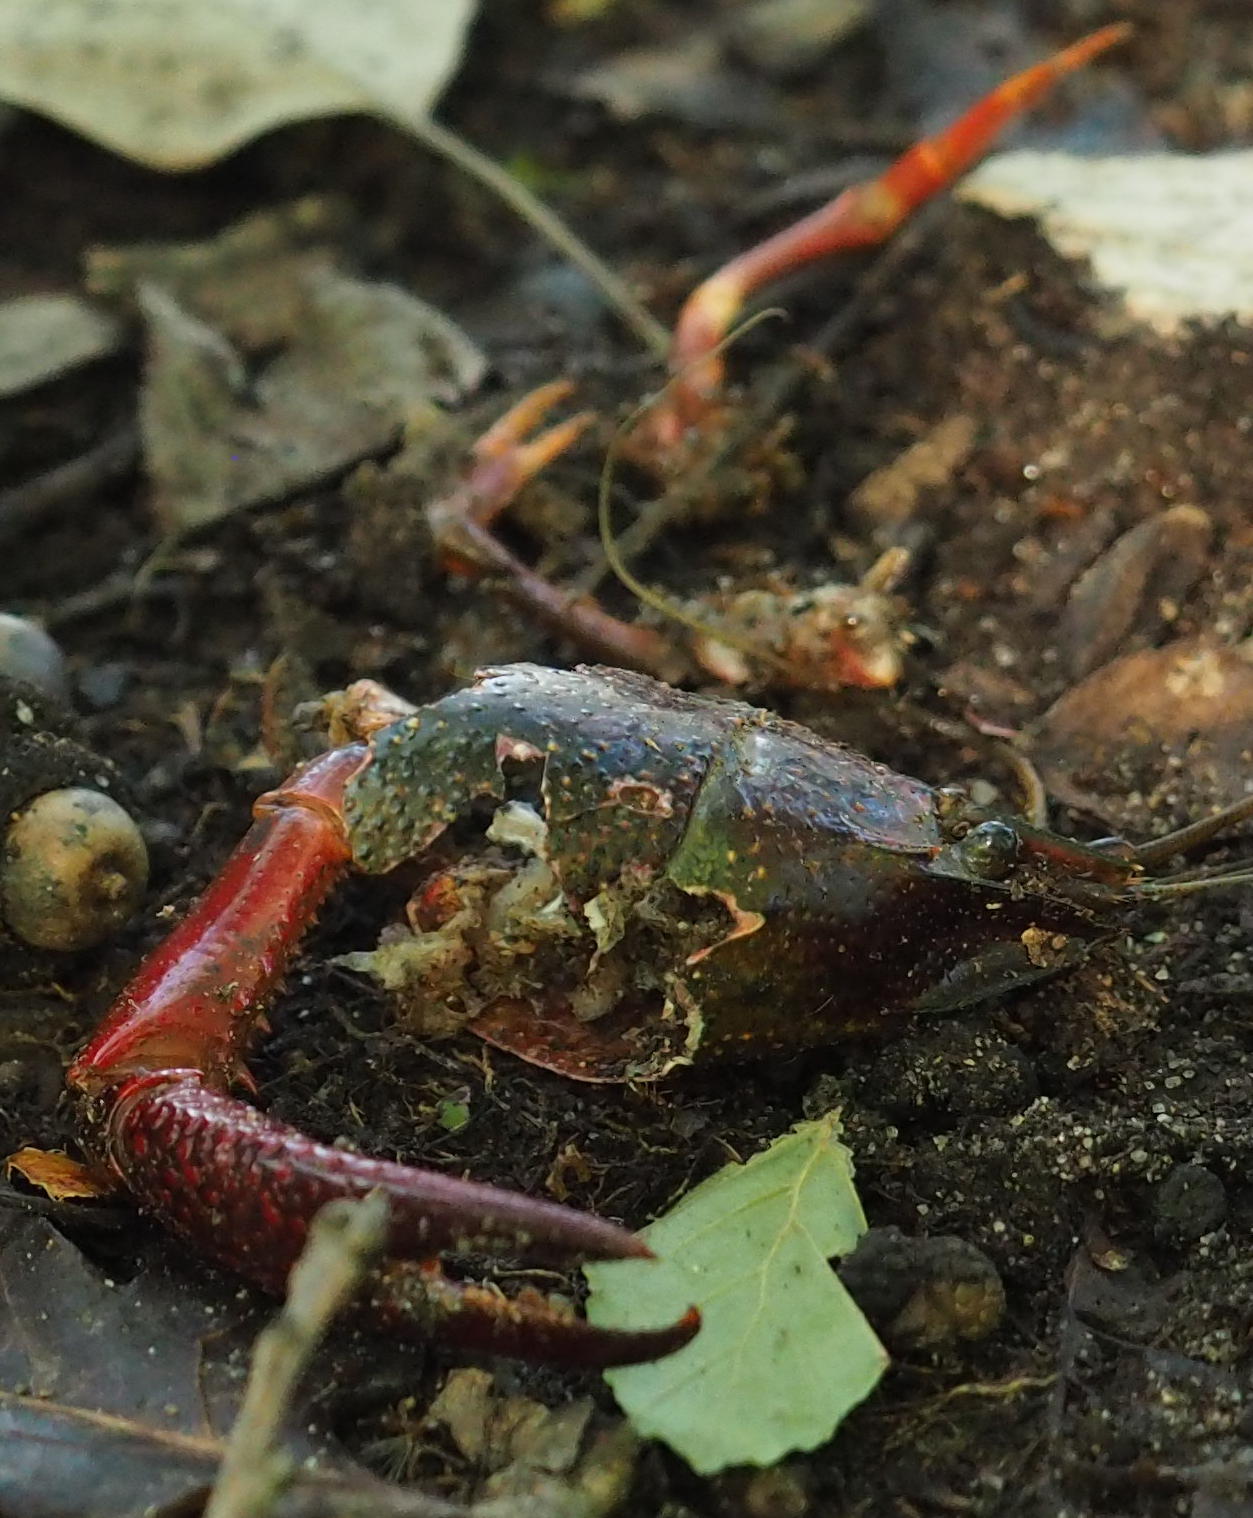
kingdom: Animalia
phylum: Arthropoda
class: Malacostraca
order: Decapoda
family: Cambaridae
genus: Procambarus
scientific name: Procambarus clarkii
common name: Red swamp crayfish
